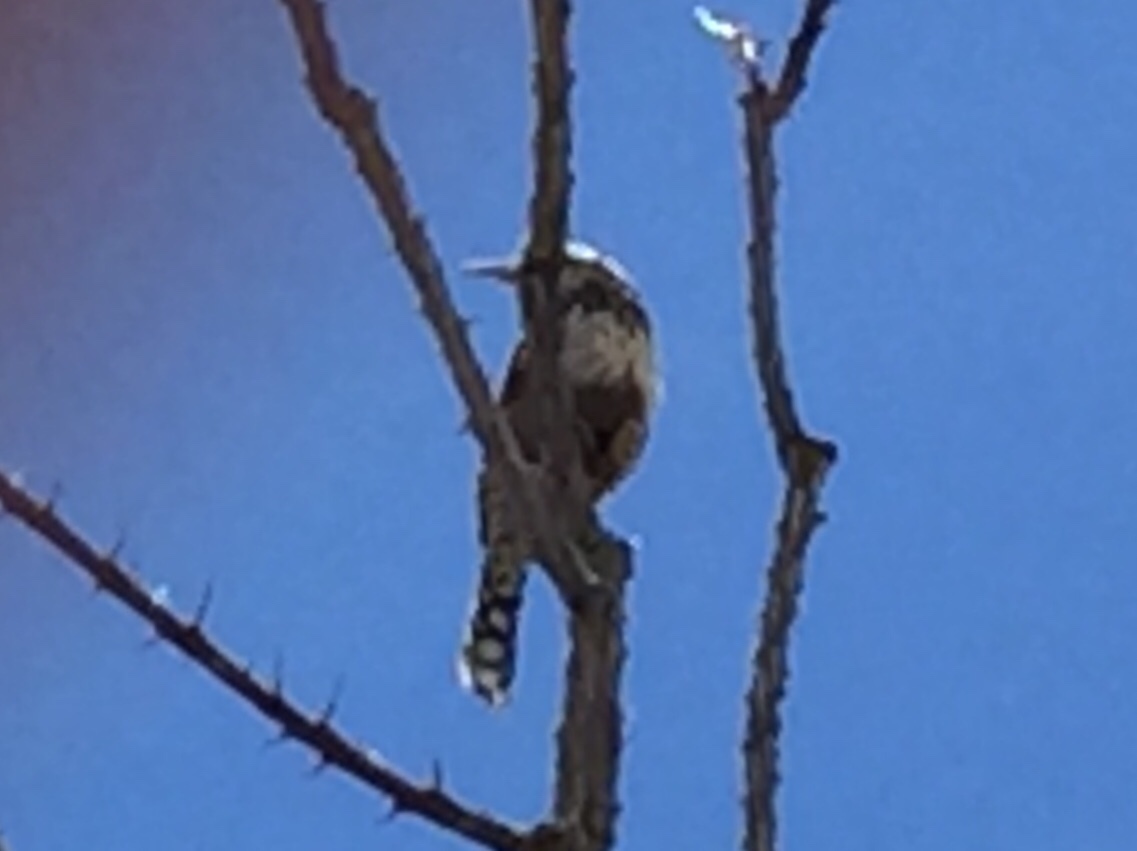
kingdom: Animalia
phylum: Chordata
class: Aves
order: Passeriformes
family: Troglodytidae
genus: Campylorhynchus
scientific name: Campylorhynchus brunneicapillus
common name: Cactus wren
